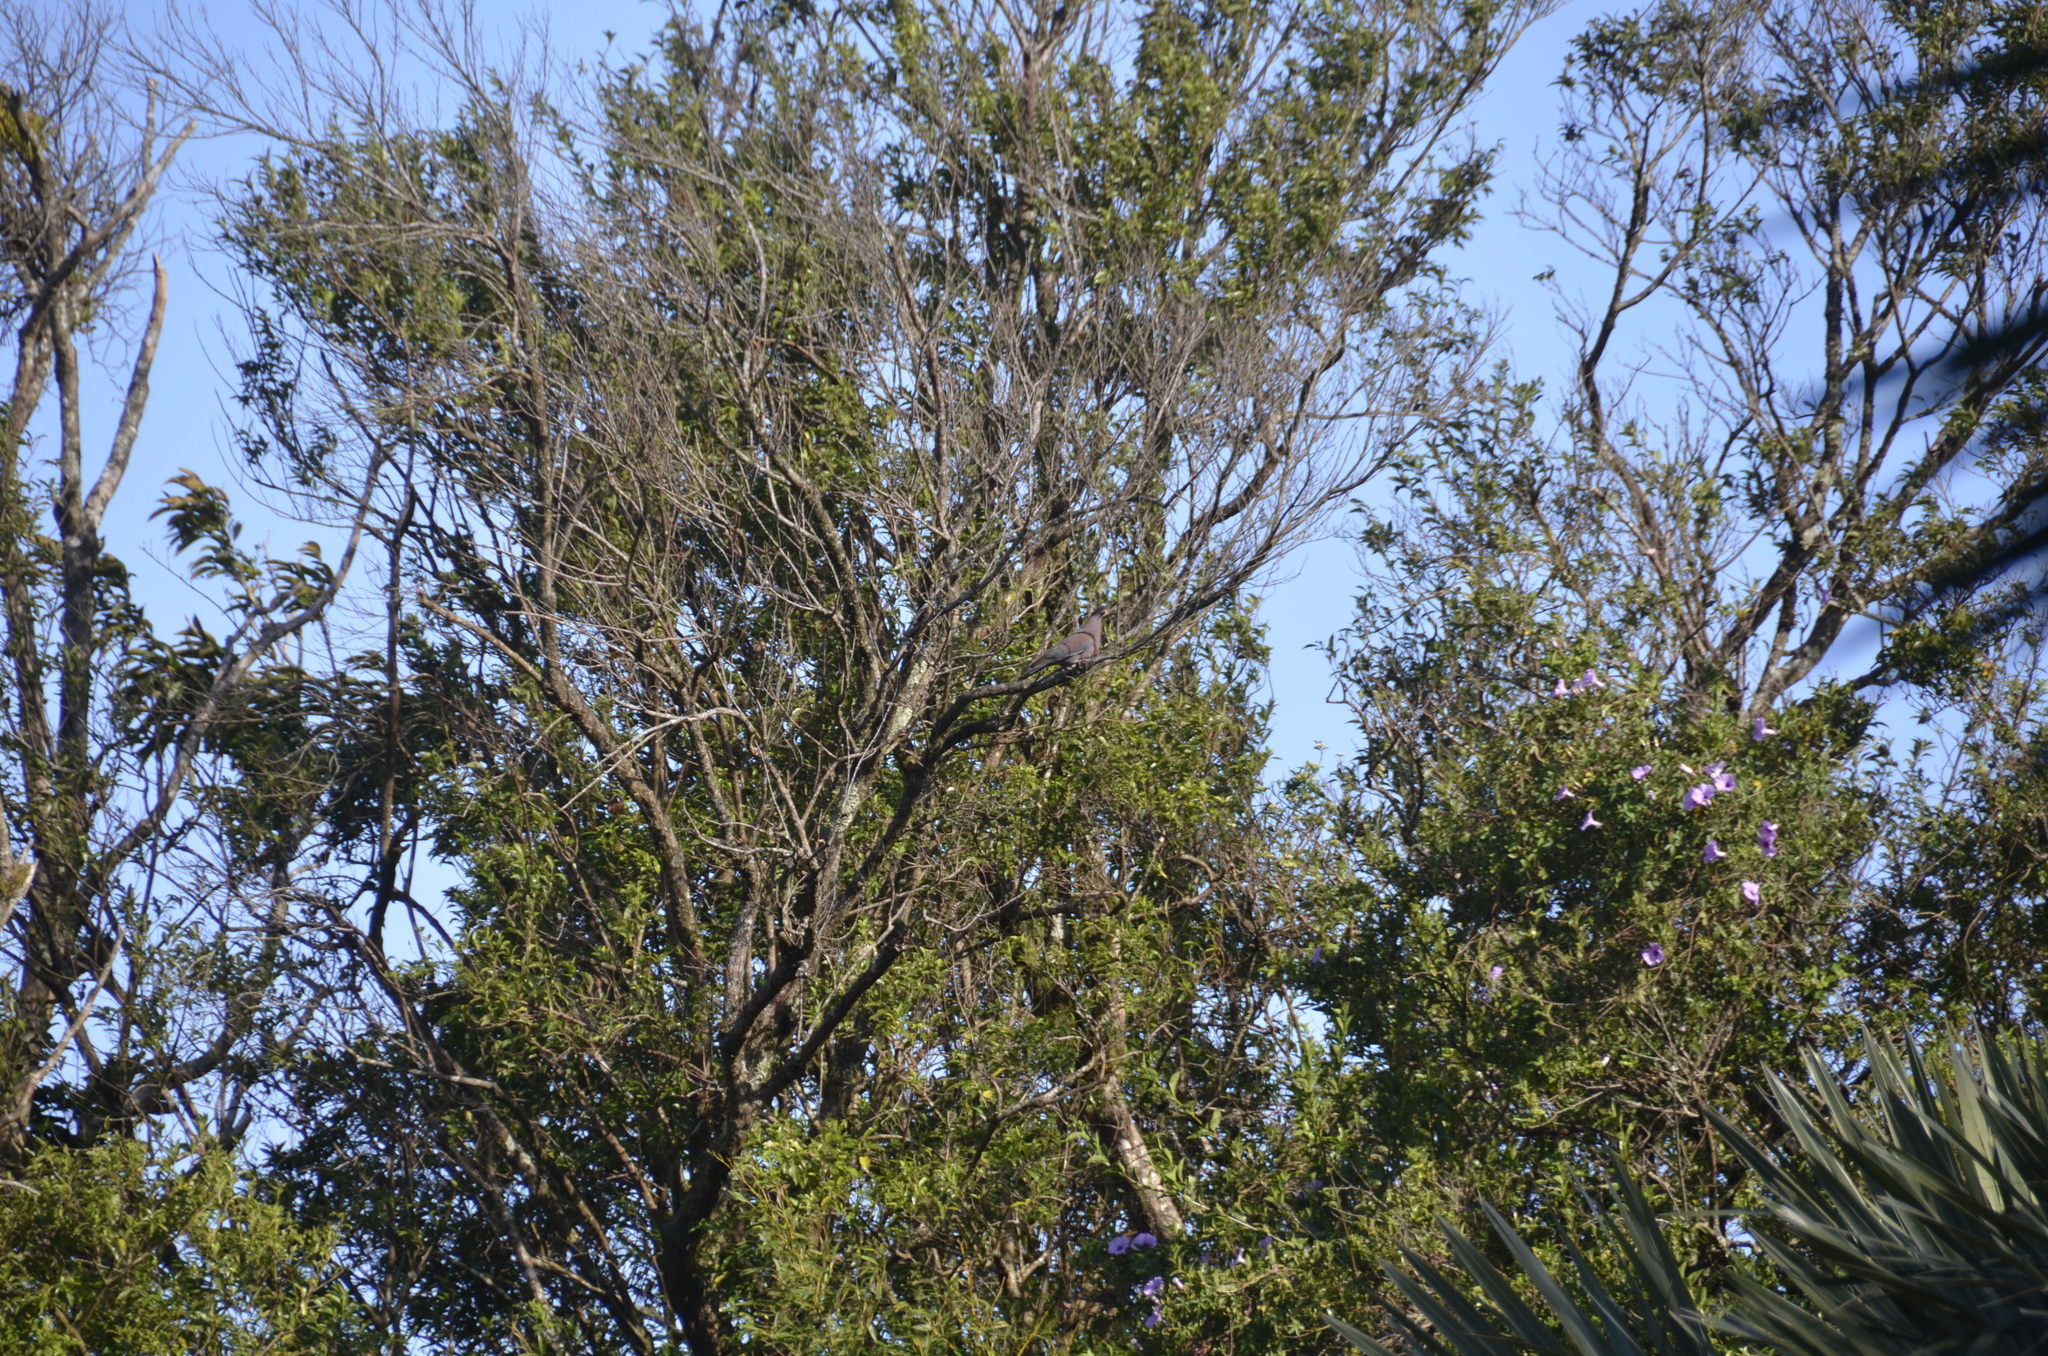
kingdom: Animalia
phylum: Chordata
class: Aves
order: Columbiformes
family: Columbidae
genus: Patagioenas
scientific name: Patagioenas flavirostris
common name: Red-billed pigeon
